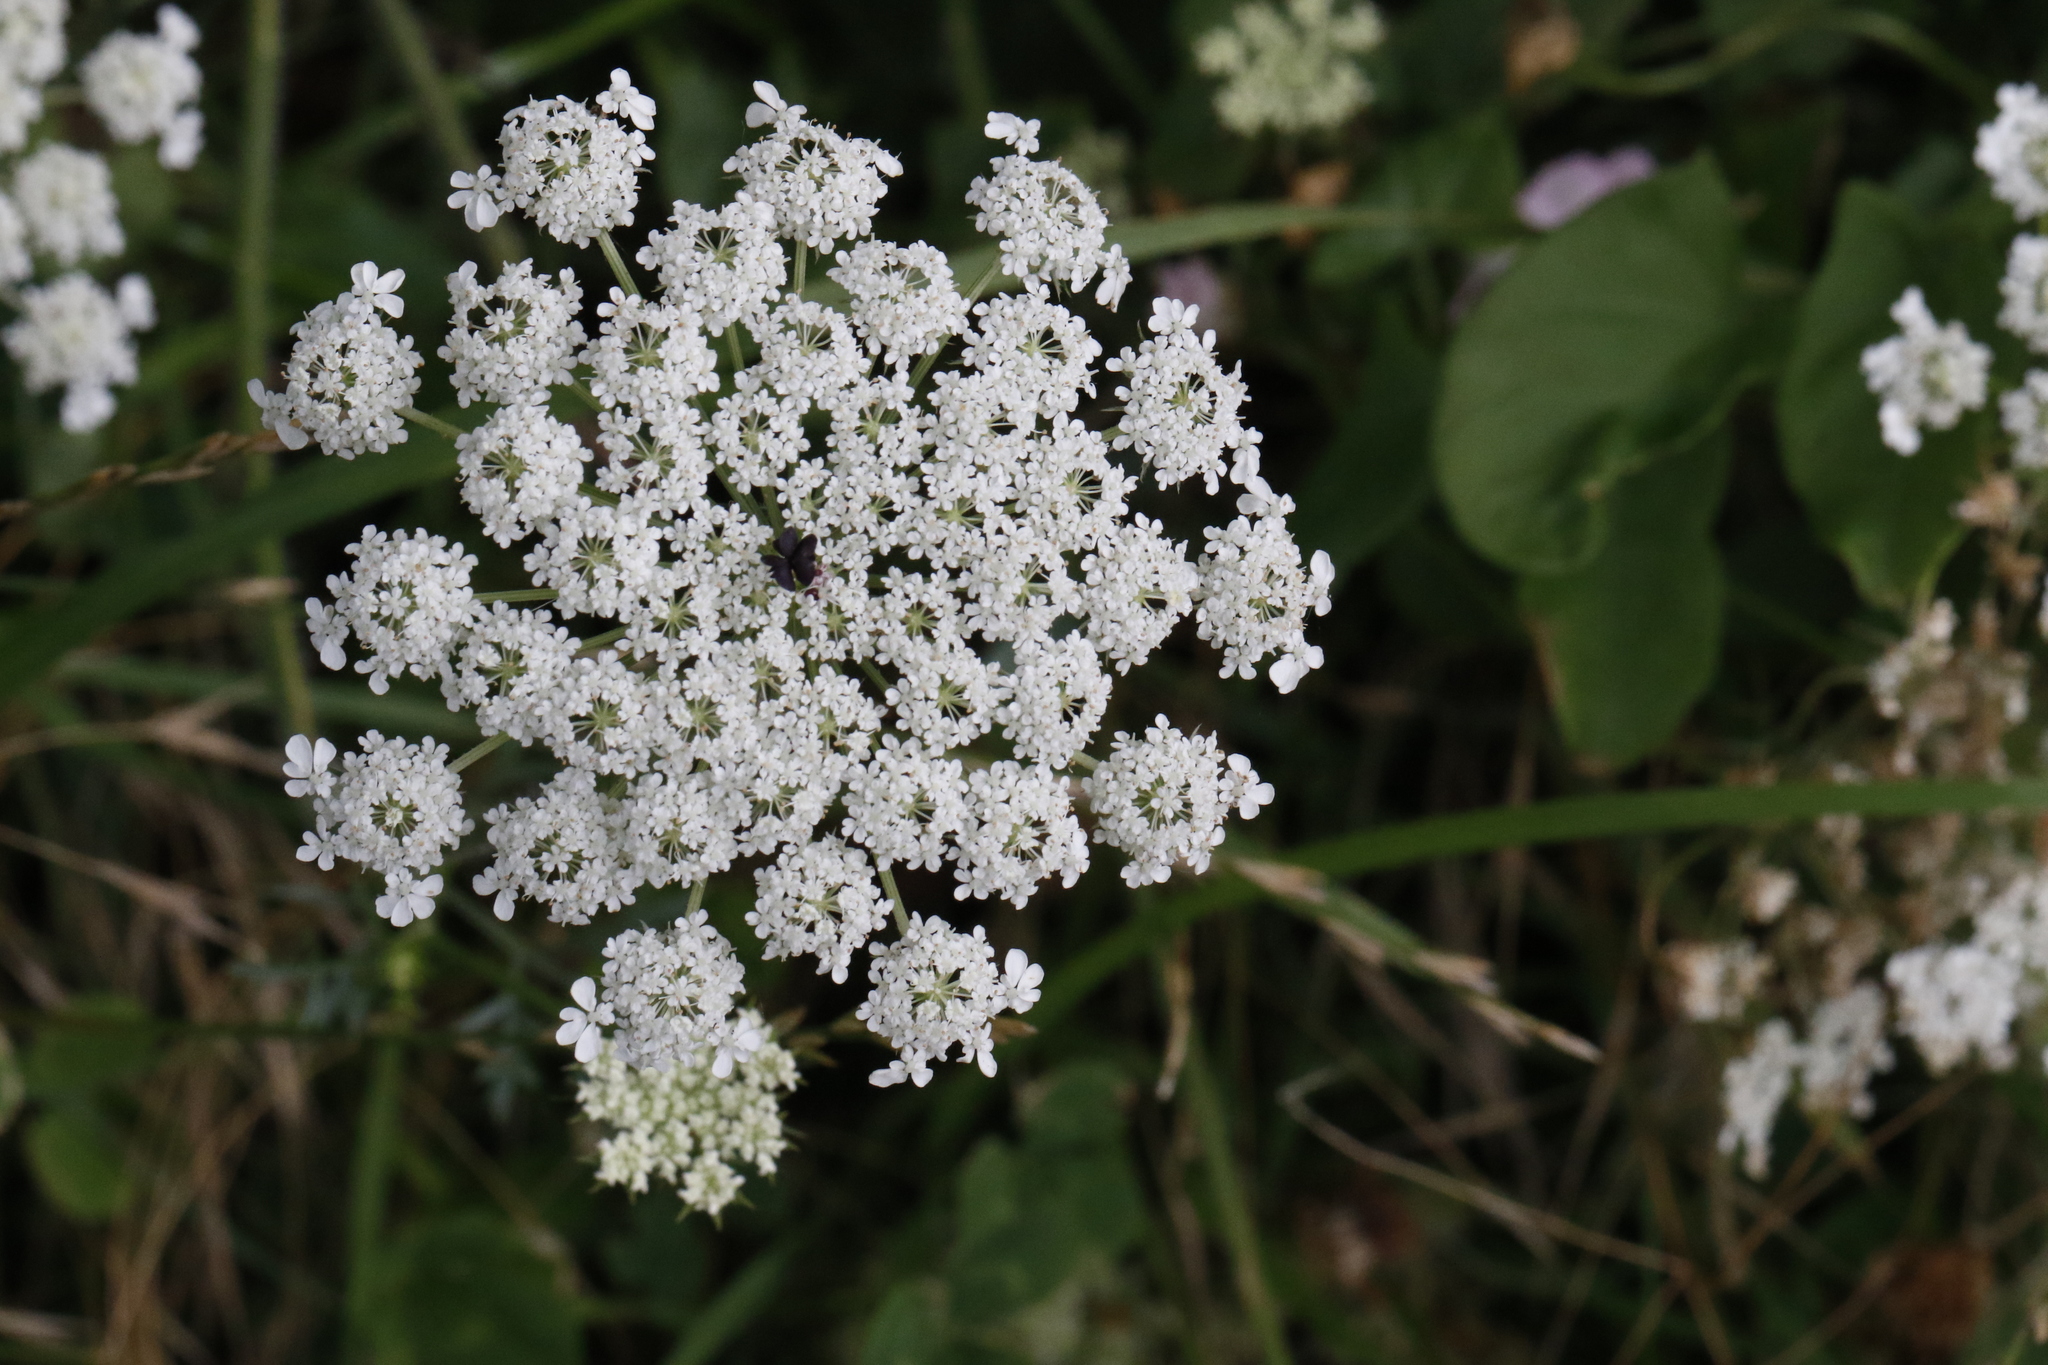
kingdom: Plantae
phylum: Tracheophyta
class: Magnoliopsida
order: Apiales
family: Apiaceae
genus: Daucus
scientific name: Daucus carota
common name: Wild carrot
